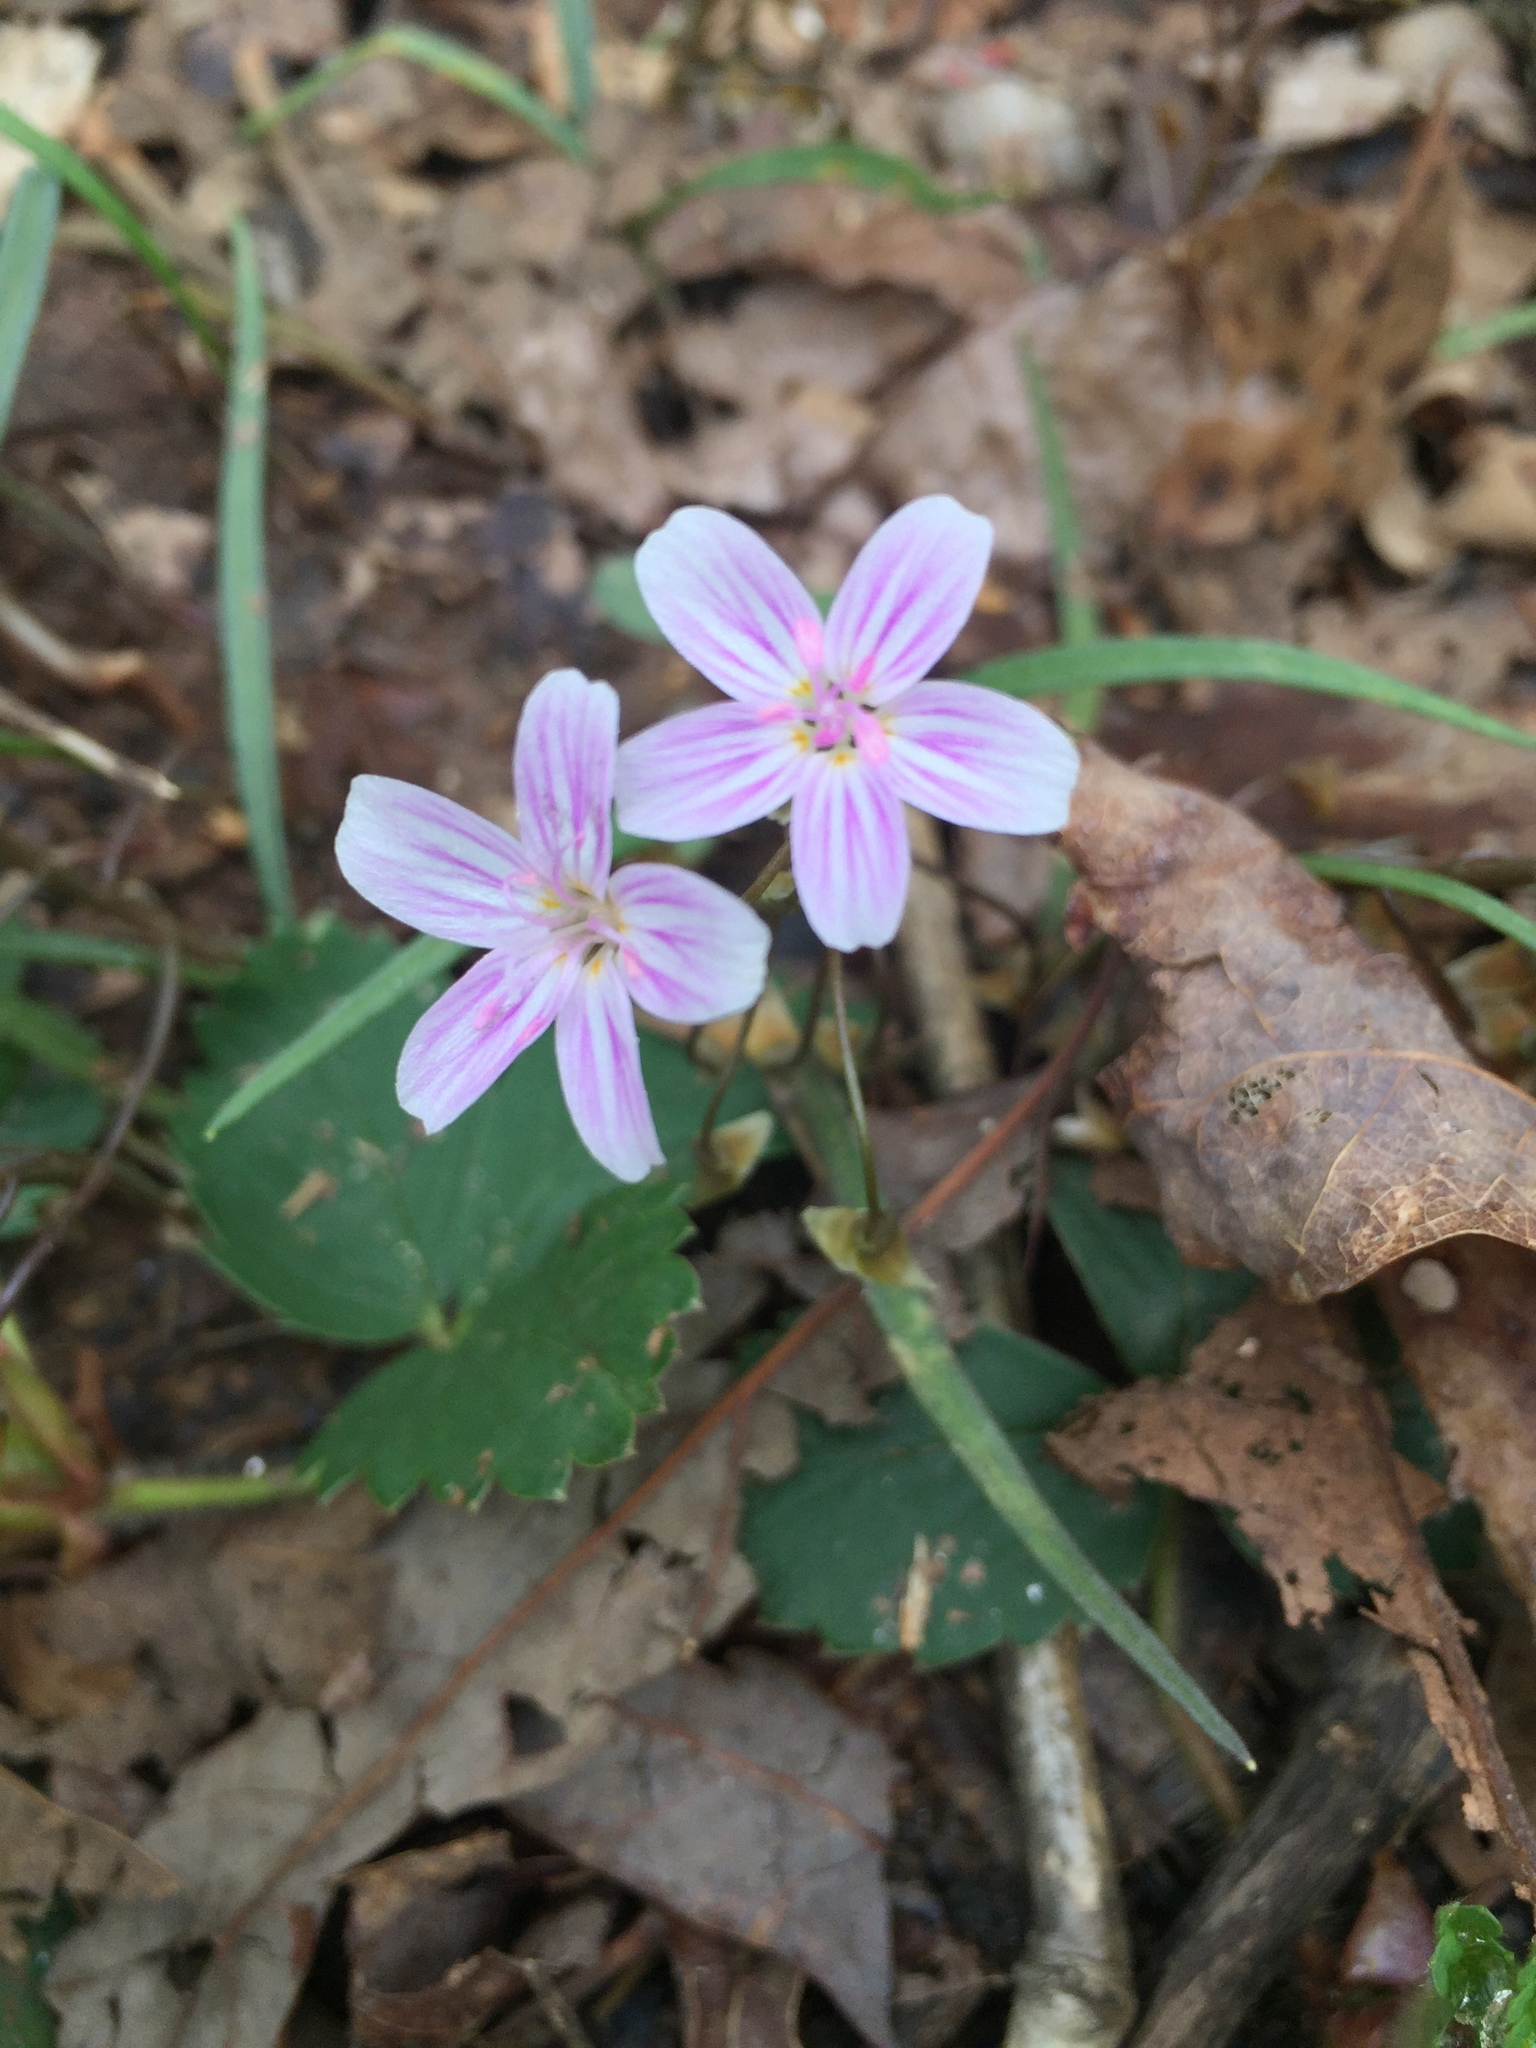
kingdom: Plantae
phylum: Tracheophyta
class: Magnoliopsida
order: Caryophyllales
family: Montiaceae
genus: Claytonia
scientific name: Claytonia virginica
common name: Virginia springbeauty
